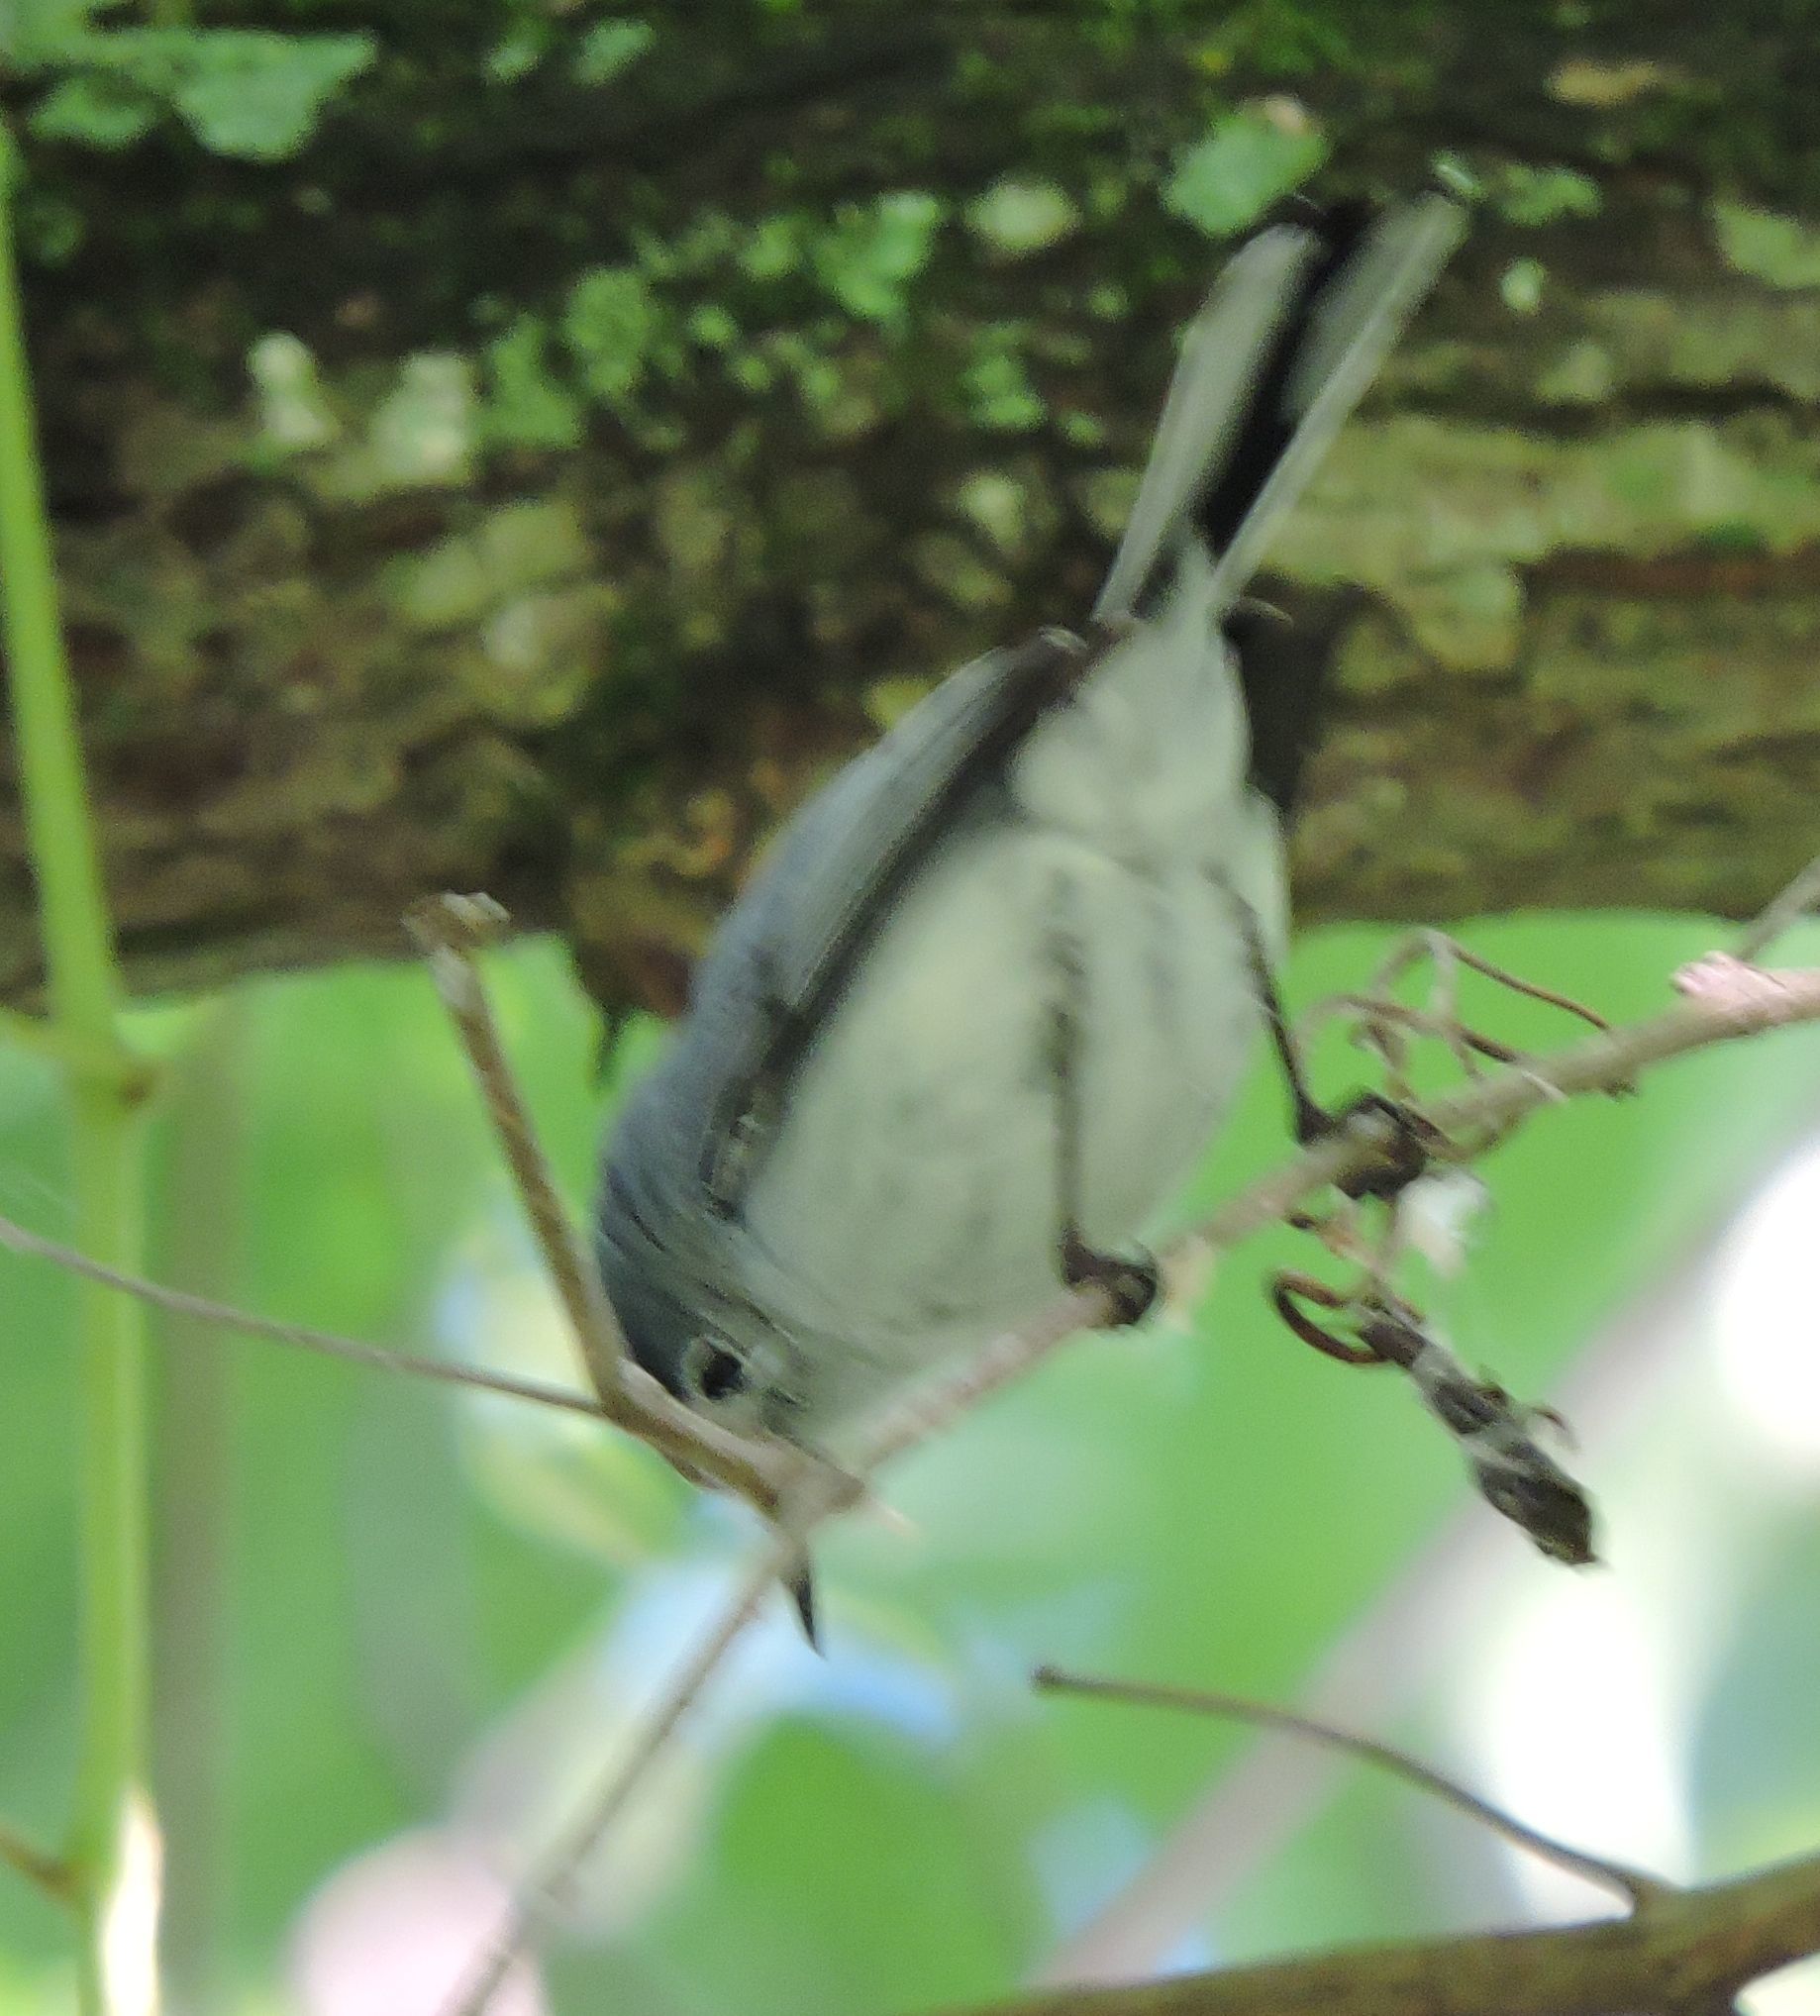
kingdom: Animalia
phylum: Chordata
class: Aves
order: Passeriformes
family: Polioptilidae
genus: Polioptila
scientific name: Polioptila caerulea
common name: Blue-gray gnatcatcher
